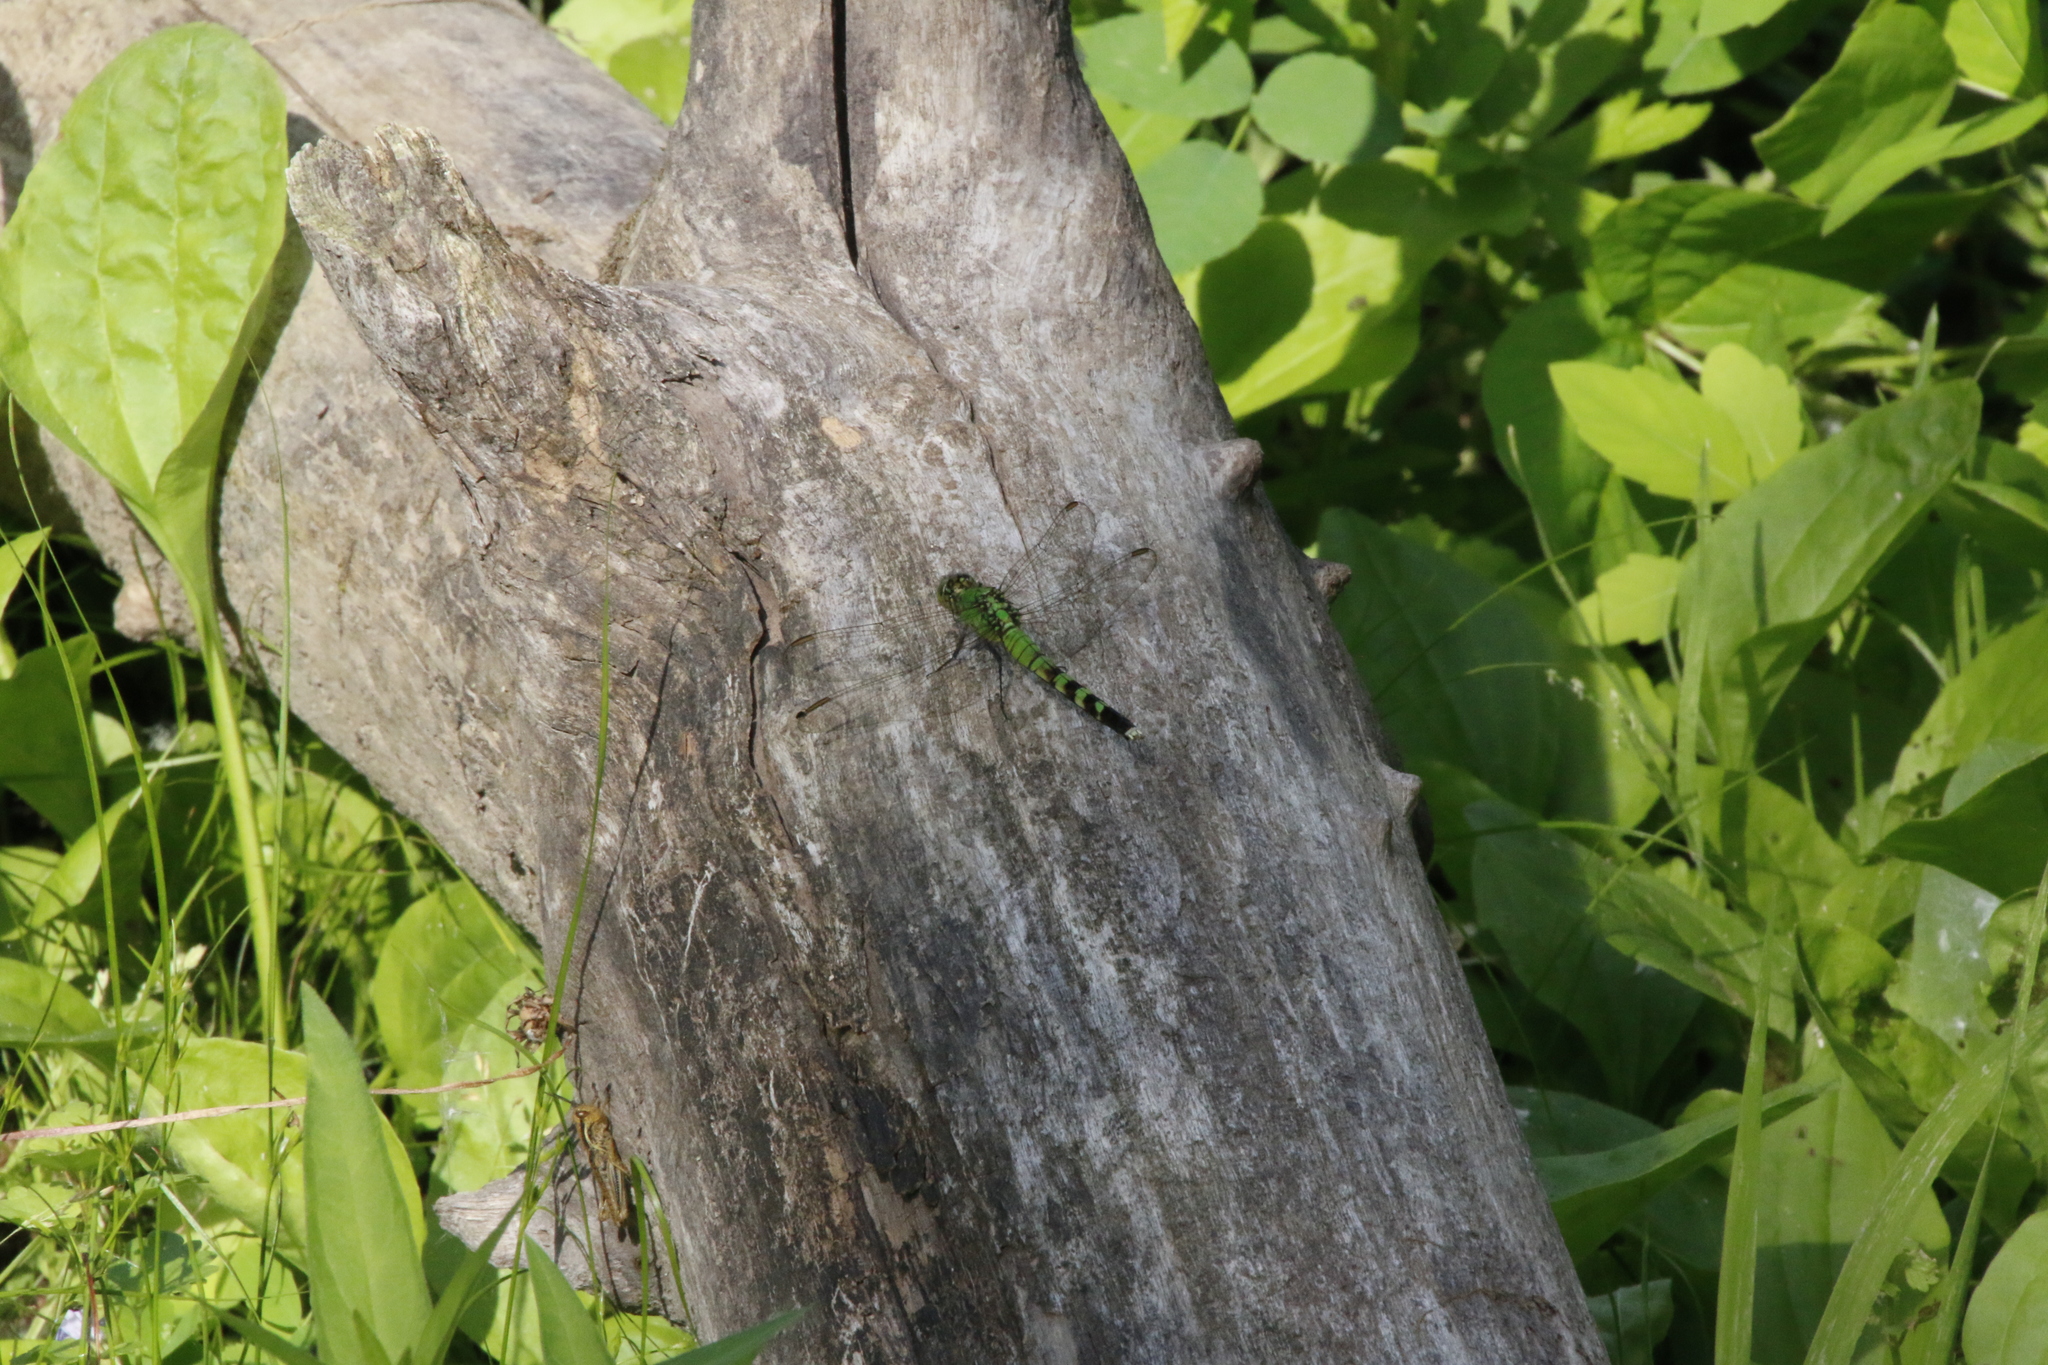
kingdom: Animalia
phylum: Arthropoda
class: Insecta
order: Odonata
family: Libellulidae
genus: Erythemis
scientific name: Erythemis simplicicollis
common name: Eastern pondhawk
